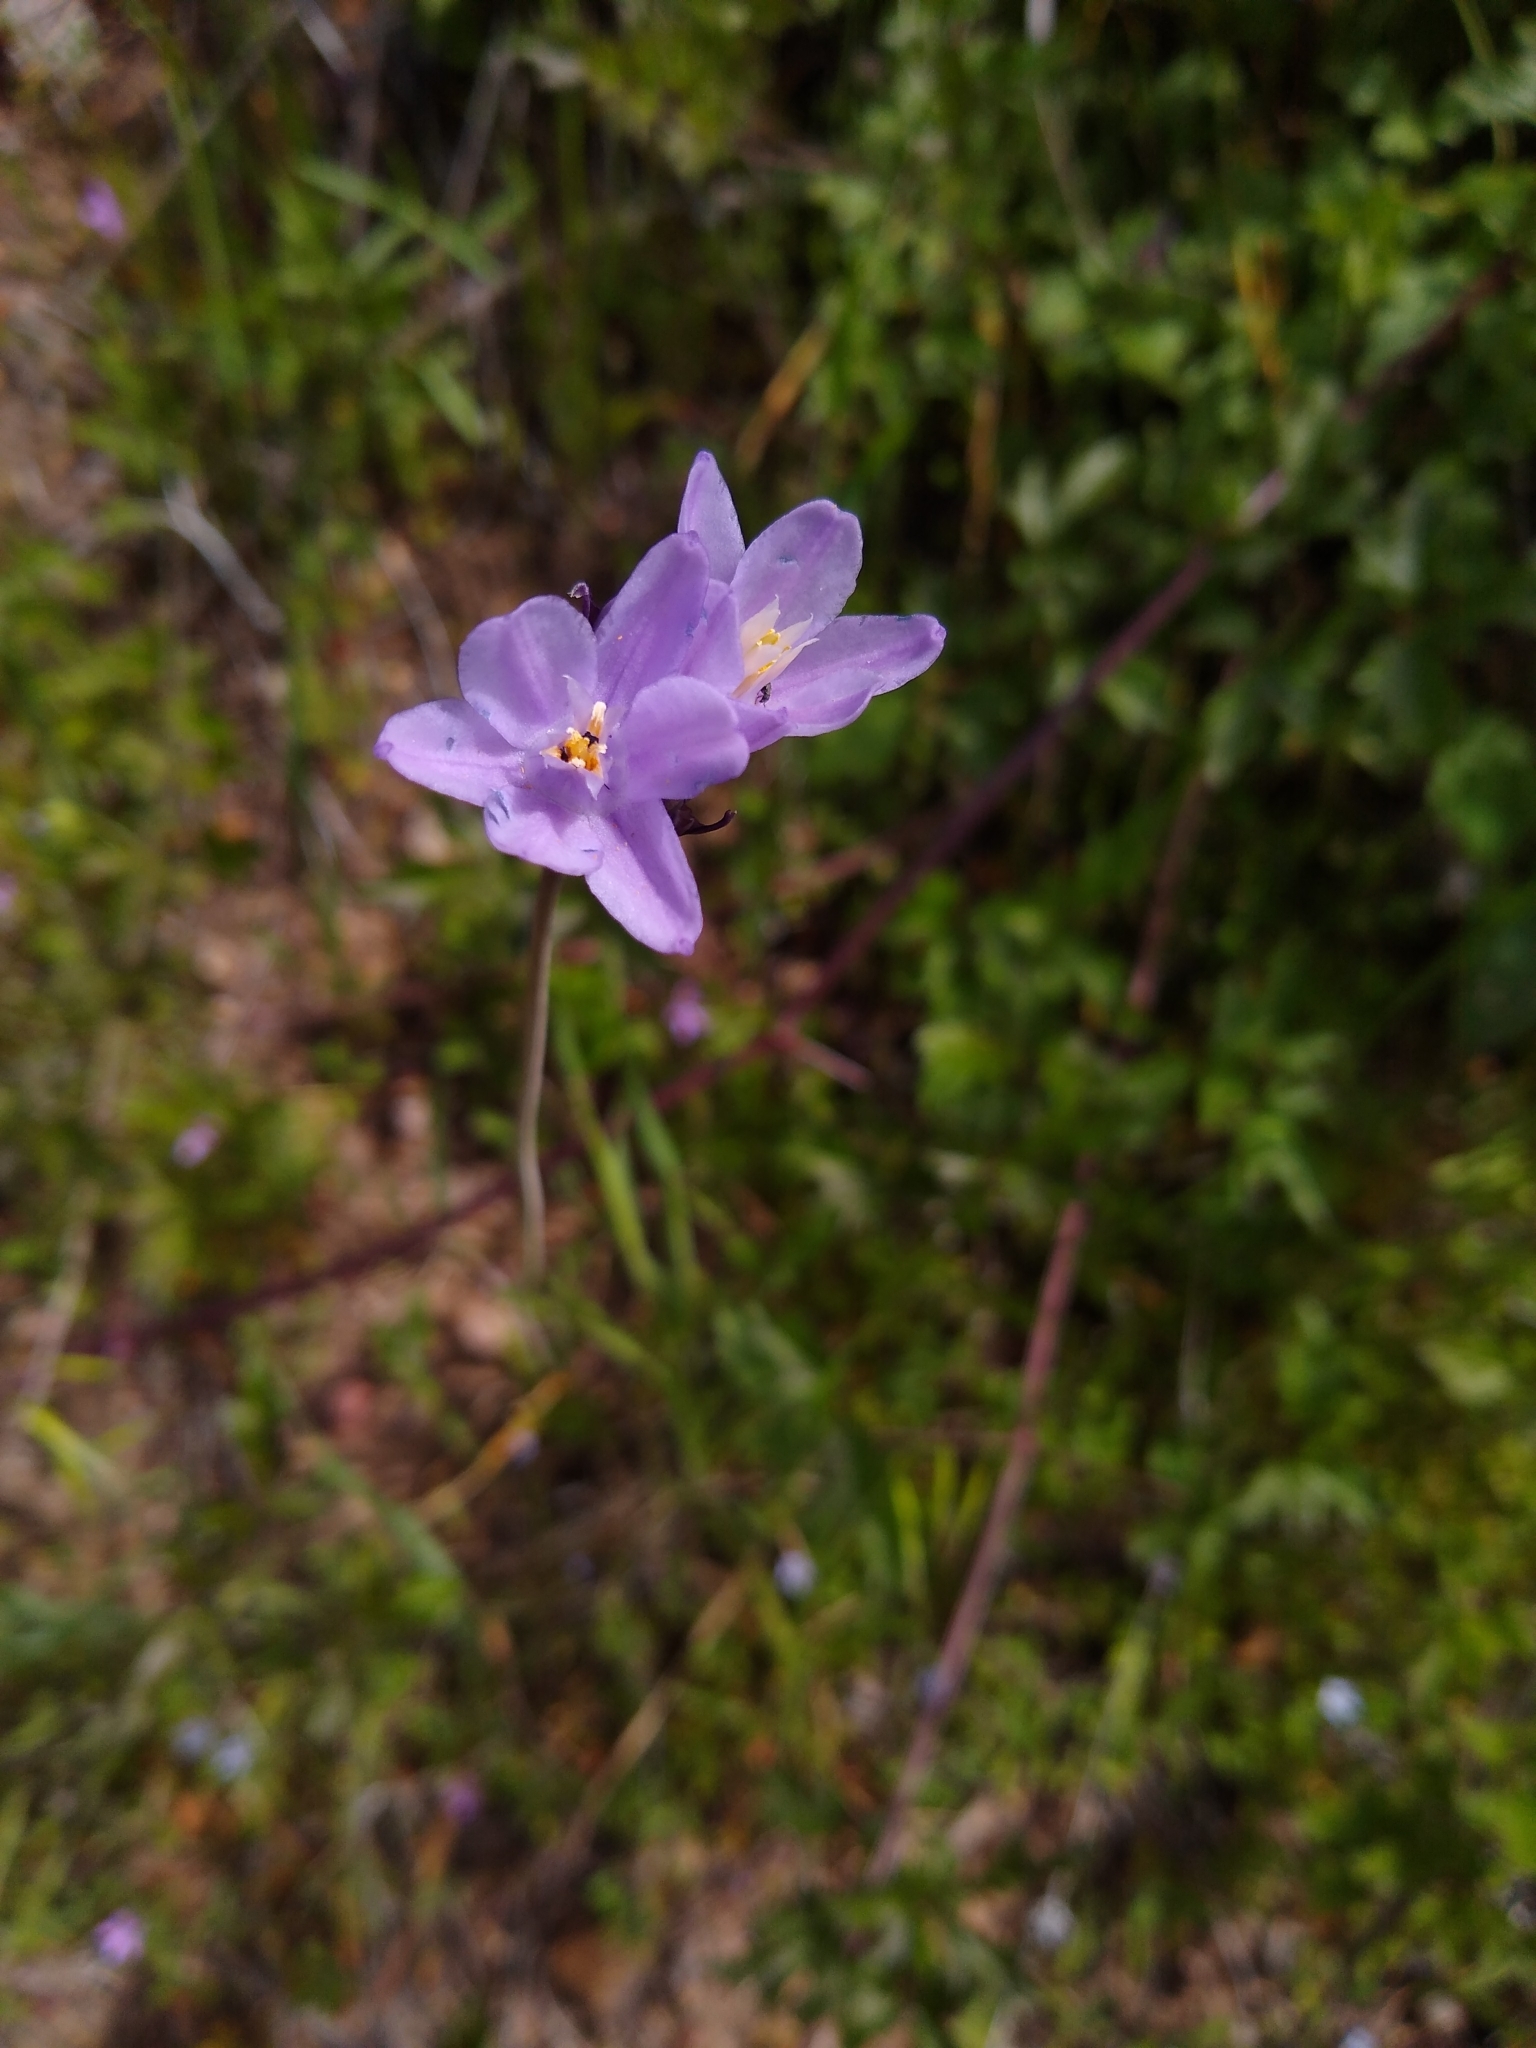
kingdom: Plantae
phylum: Tracheophyta
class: Liliopsida
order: Asparagales
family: Asparagaceae
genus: Dipterostemon
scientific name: Dipterostemon capitatus
